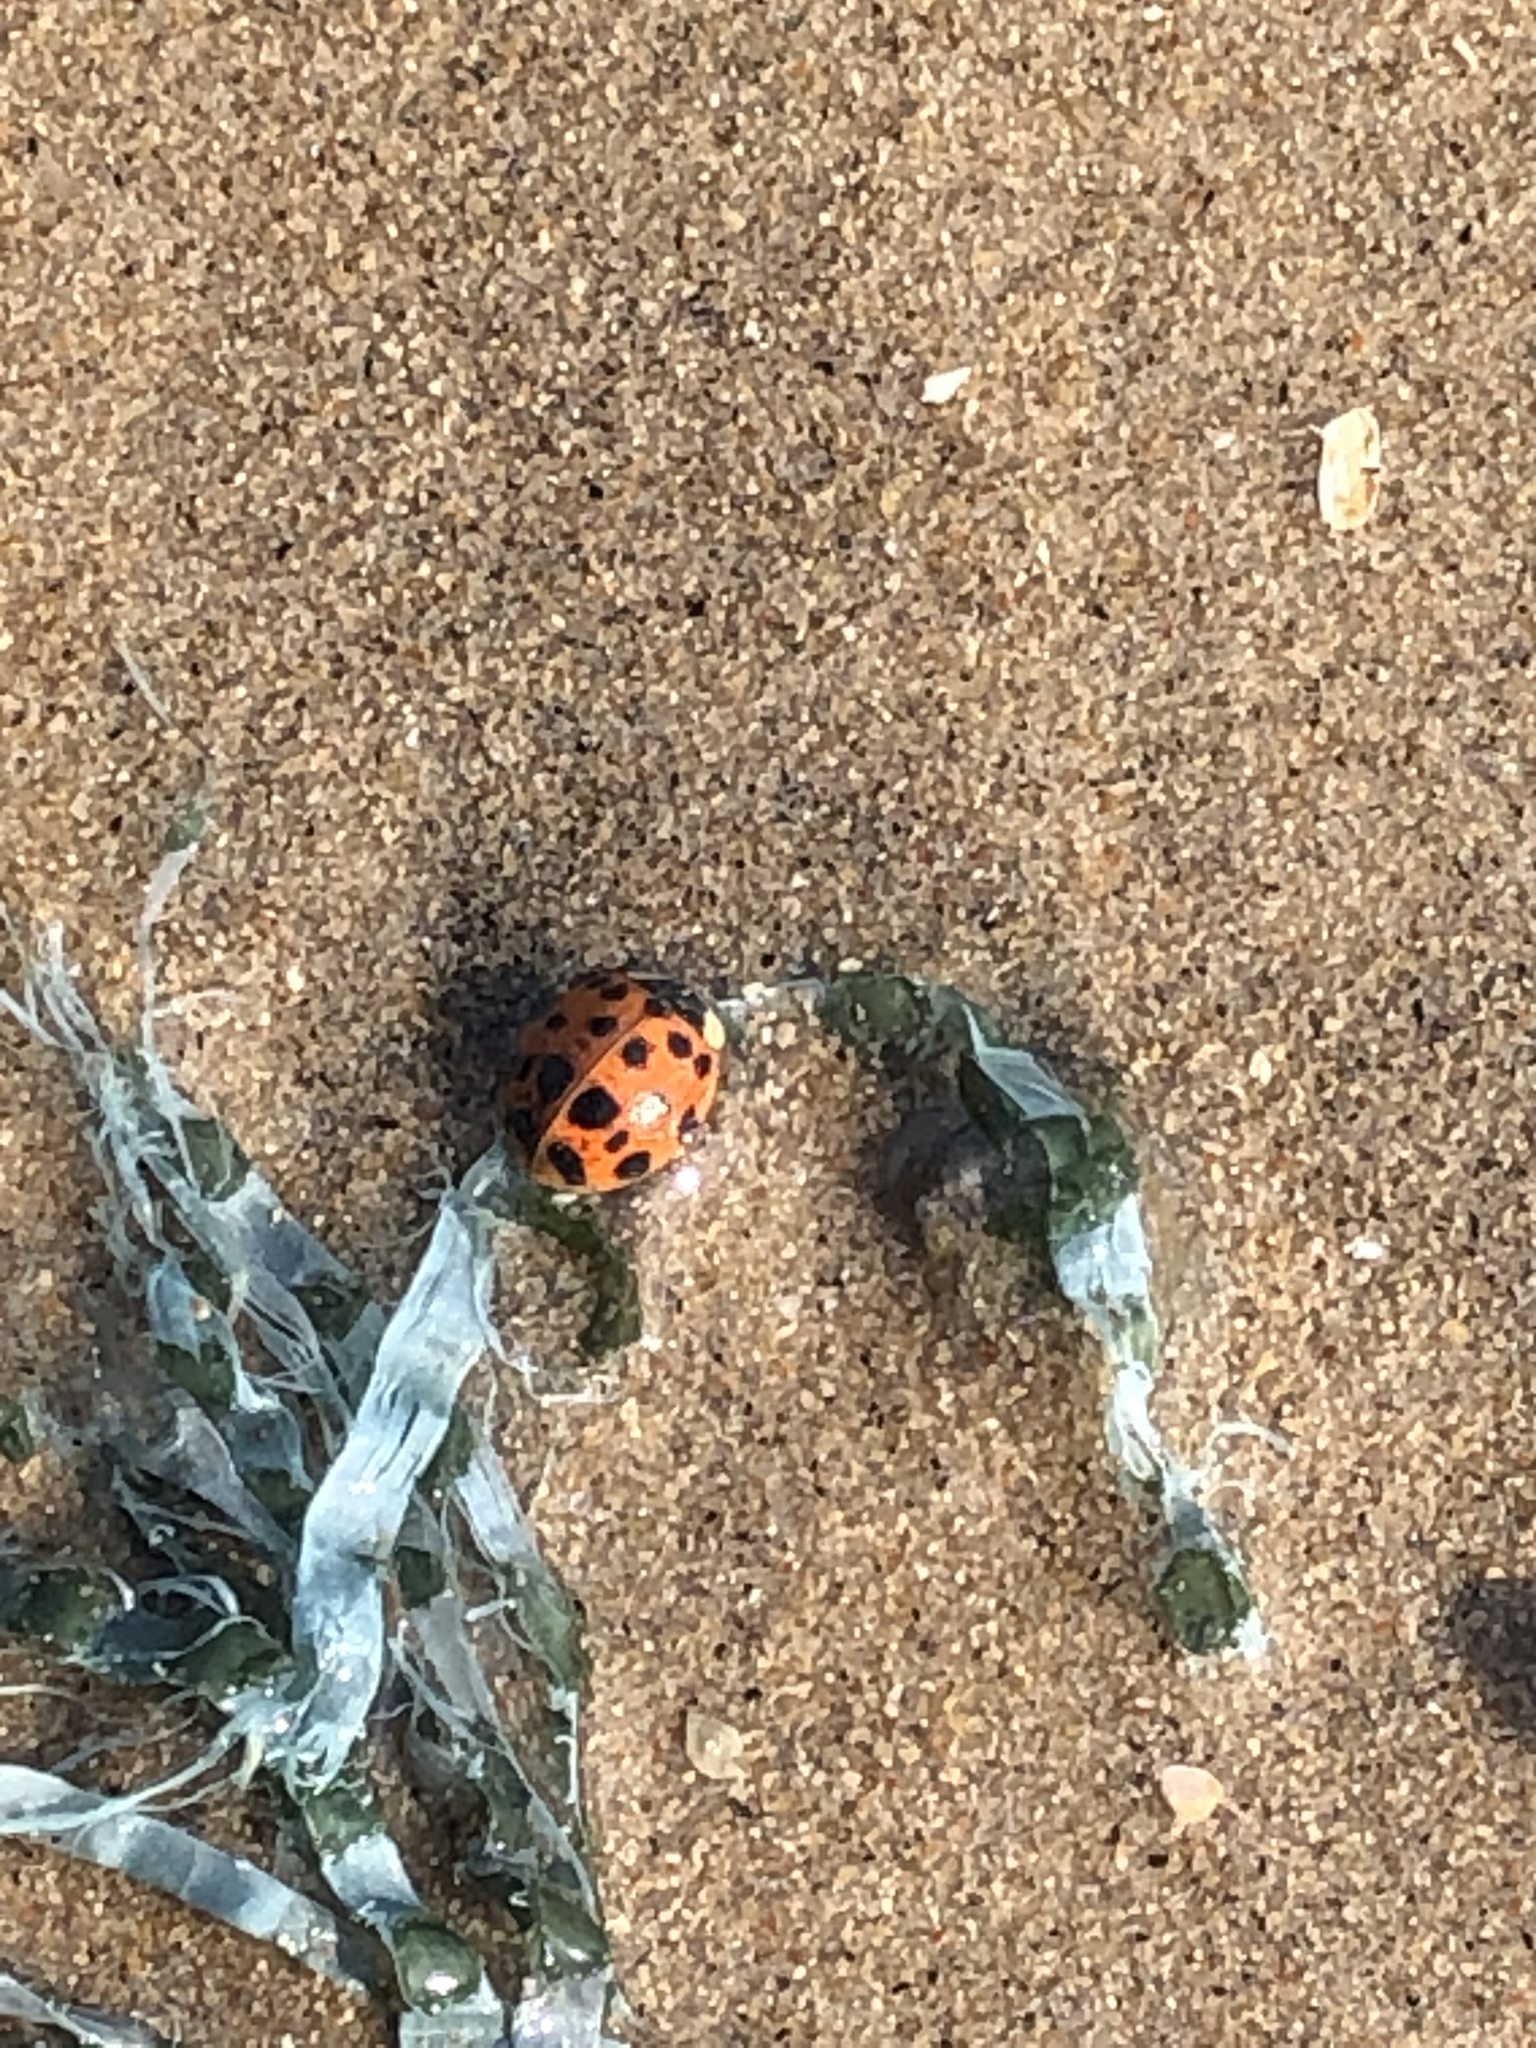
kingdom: Animalia
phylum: Arthropoda
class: Insecta
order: Coleoptera
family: Coccinellidae
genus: Harmonia
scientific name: Harmonia axyridis
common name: Harlequin ladybird
